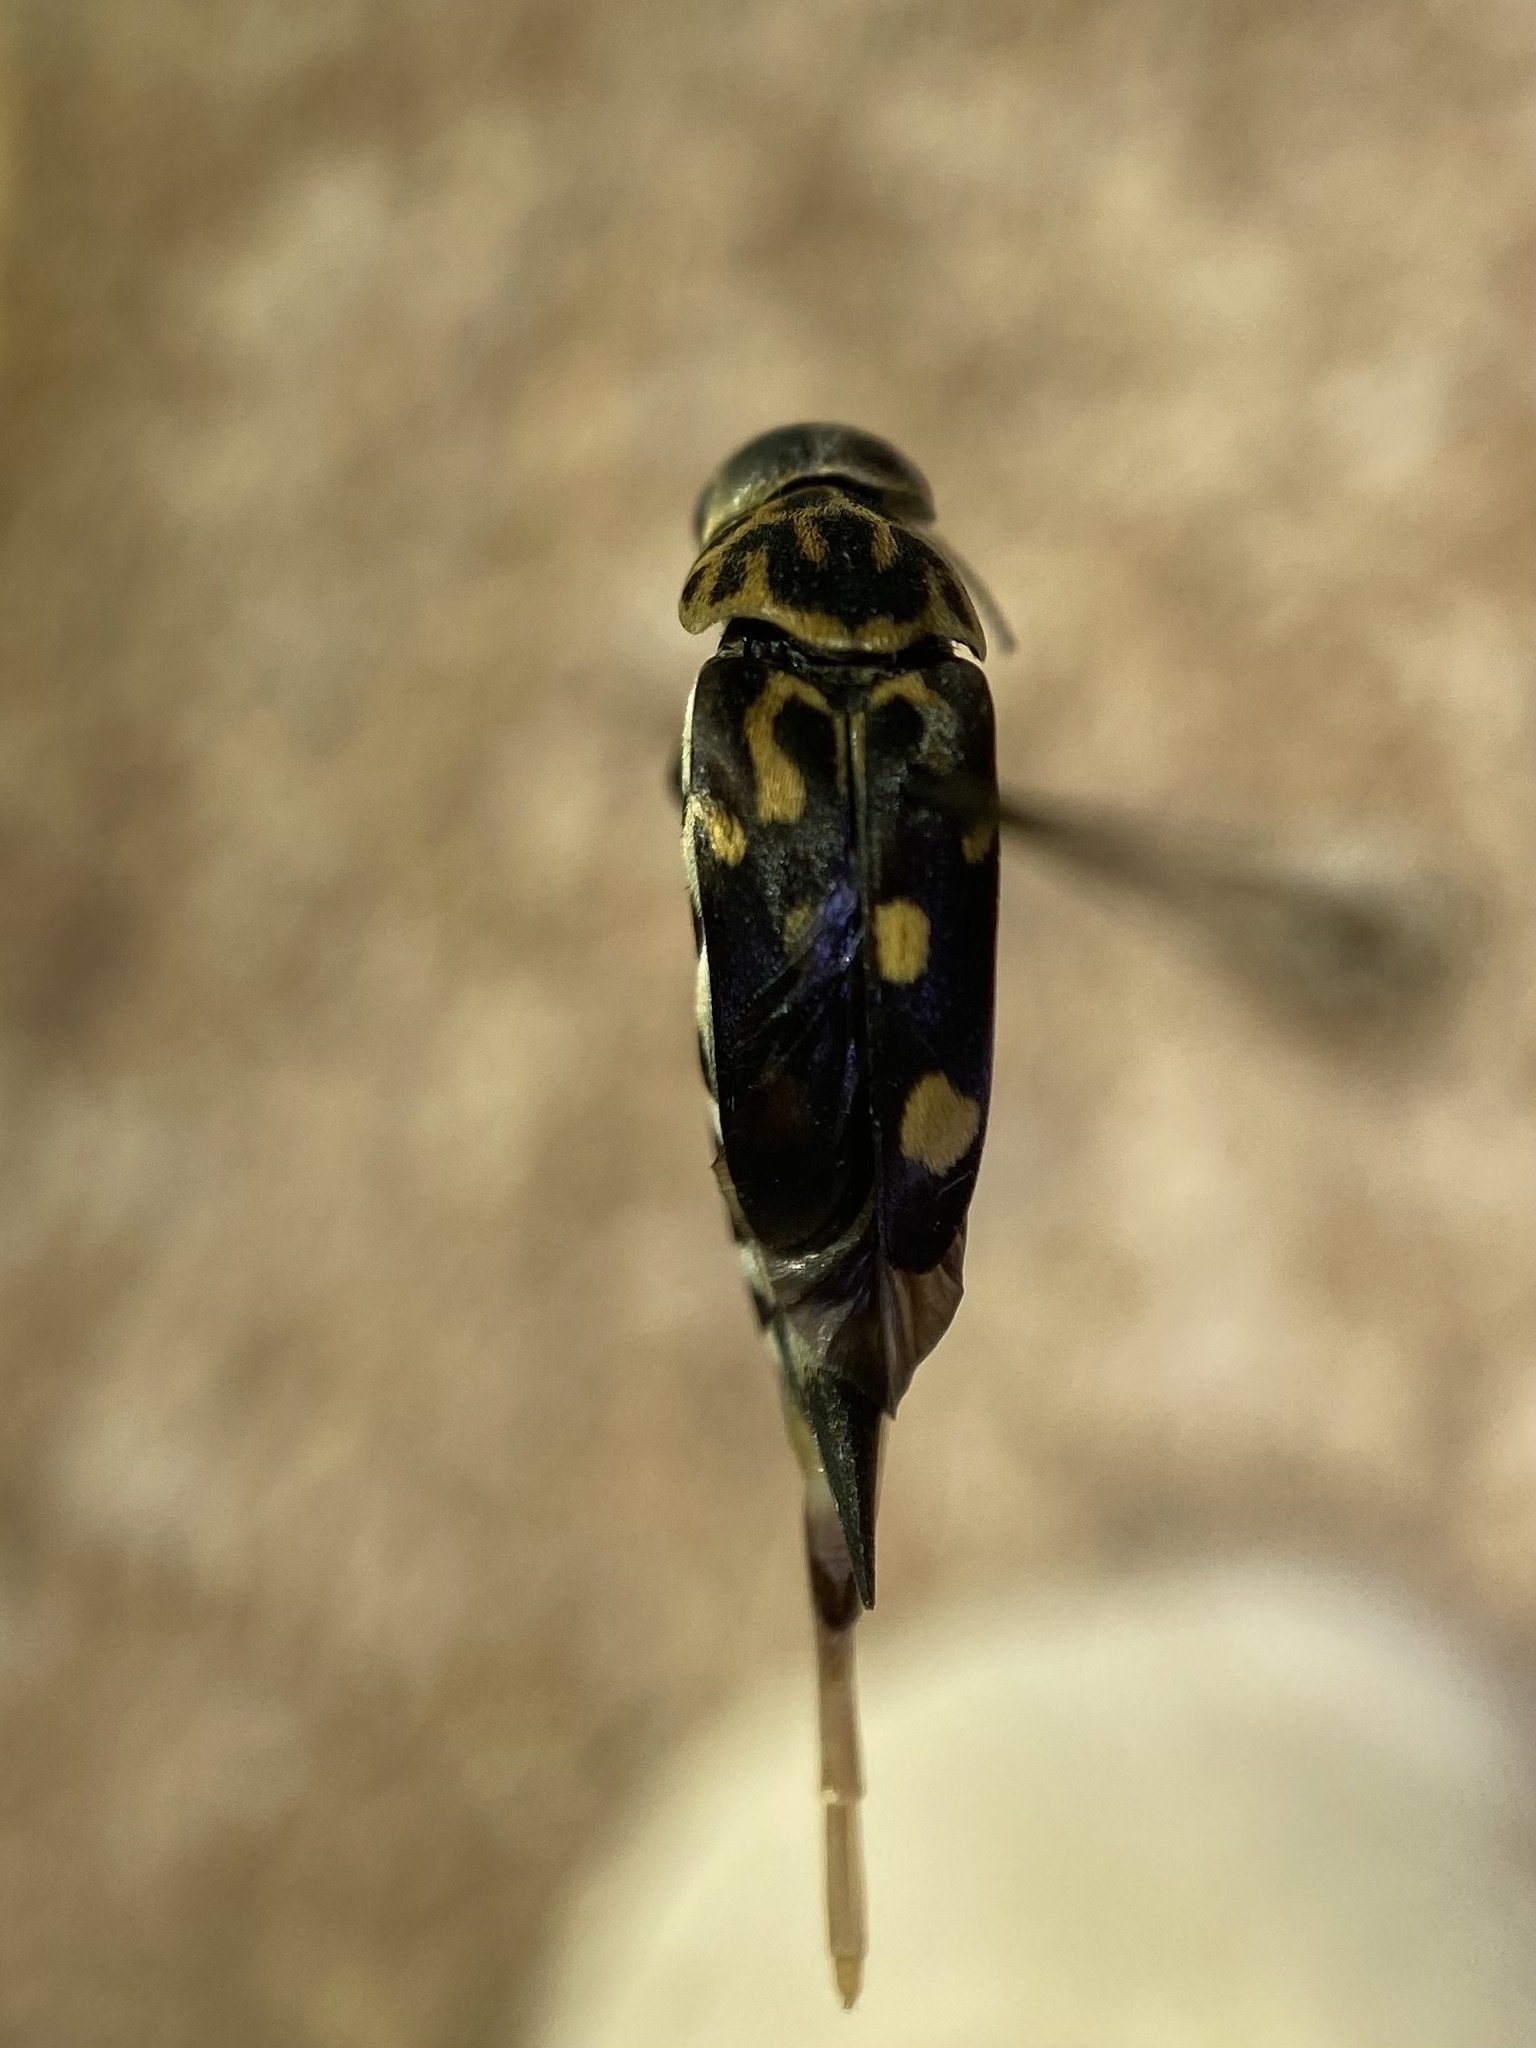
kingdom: Animalia
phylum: Arthropoda
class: Insecta
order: Coleoptera
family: Mordellidae
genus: Hoshihananomia
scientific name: Hoshihananomia octopunctata
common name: Eight-spotted tumbling flower beetle
